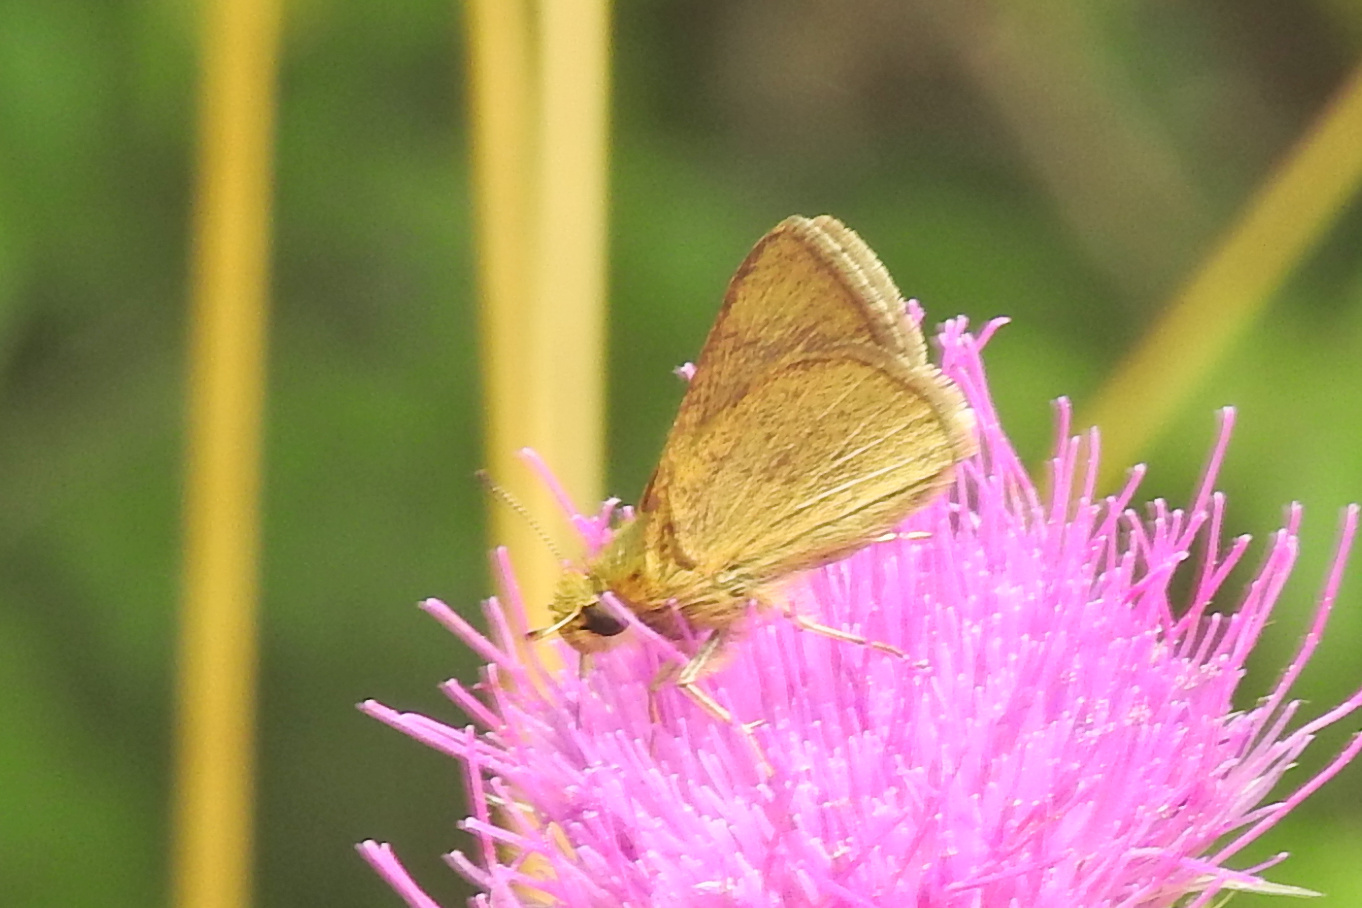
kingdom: Animalia
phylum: Arthropoda
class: Insecta
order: Lepidoptera
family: Hesperiidae
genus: Nastra
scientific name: Nastra lherminier
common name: Swarthy skipper
